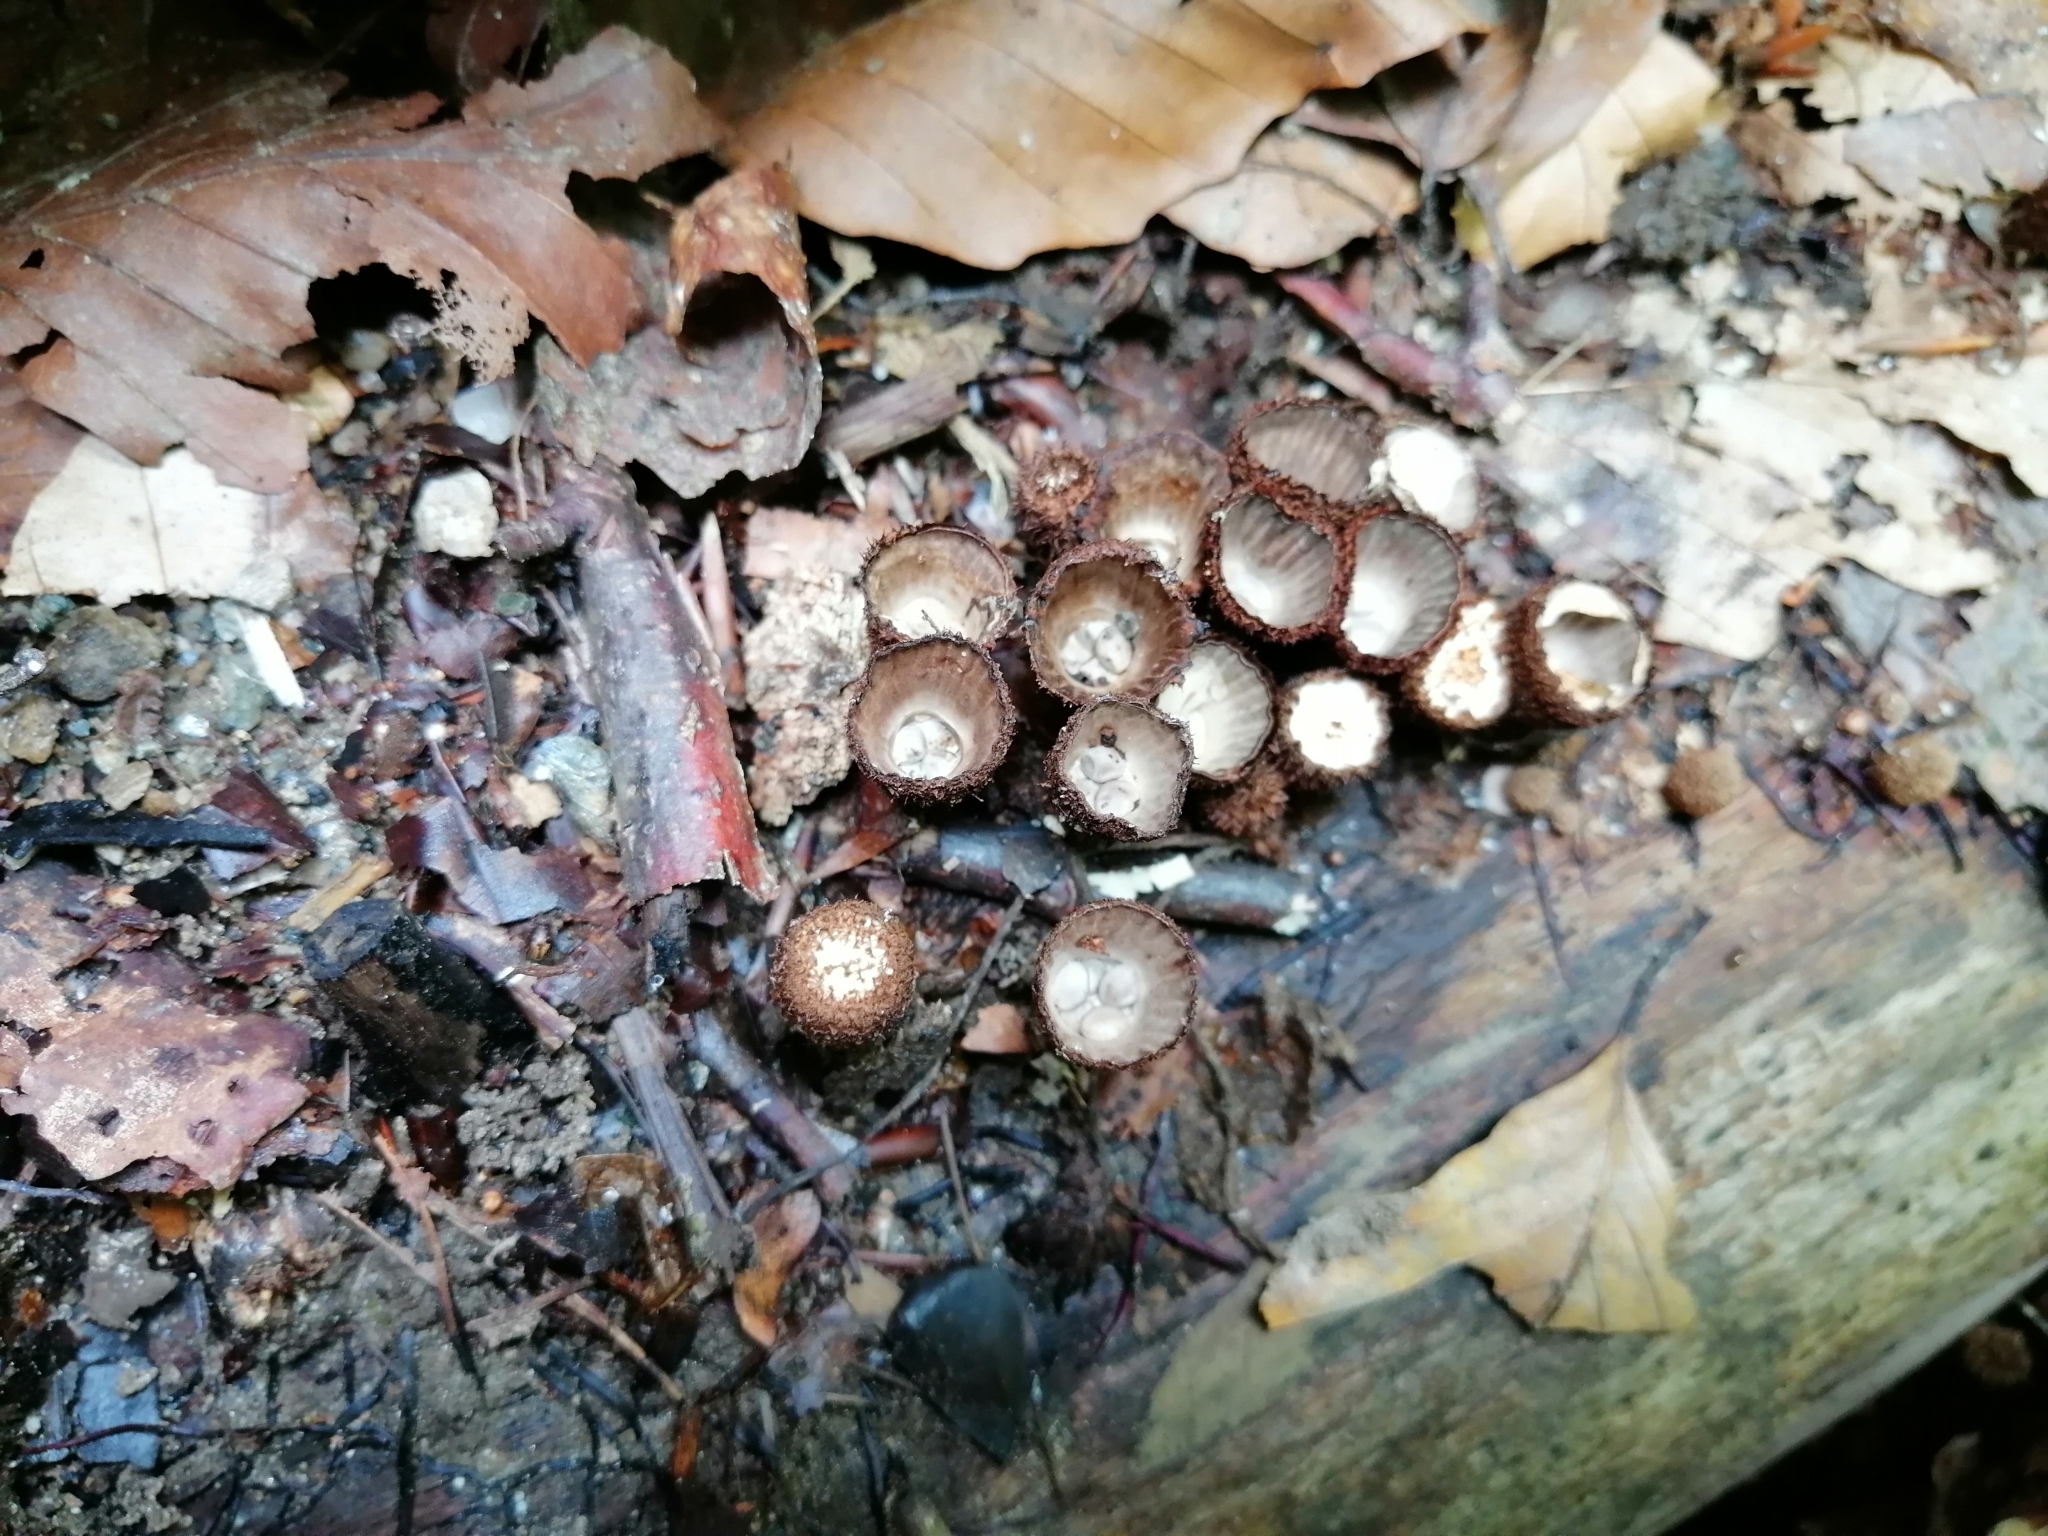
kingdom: Fungi
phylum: Basidiomycota
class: Agaricomycetes
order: Agaricales
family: Agaricaceae
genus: Cyathus
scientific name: Cyathus striatus
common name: Fluted bird's nest
